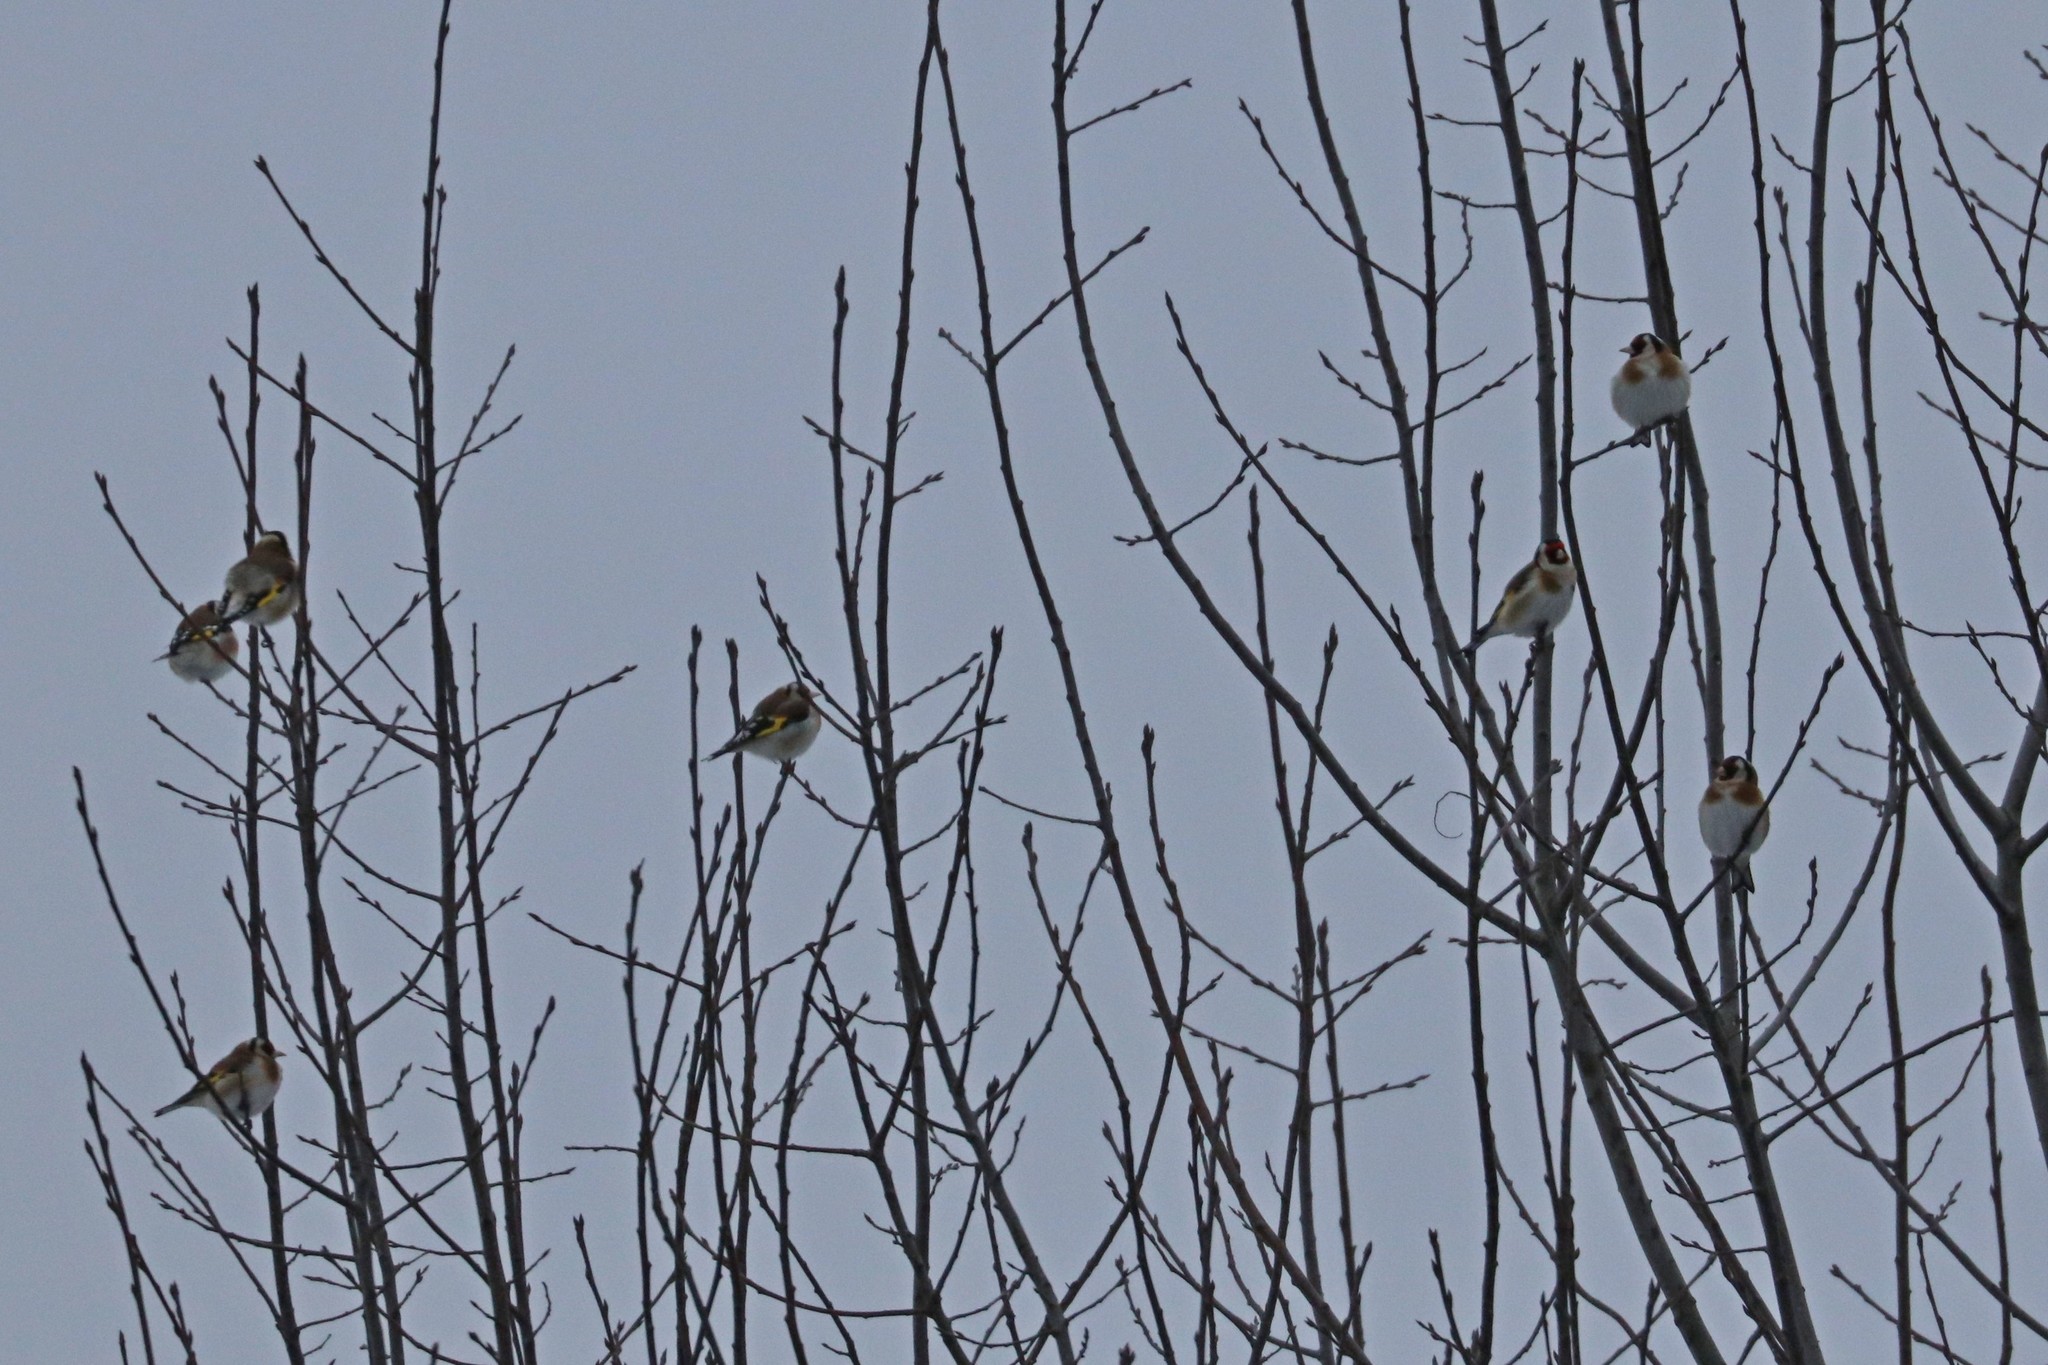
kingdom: Animalia
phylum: Chordata
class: Aves
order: Passeriformes
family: Fringillidae
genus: Carduelis
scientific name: Carduelis carduelis
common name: European goldfinch
